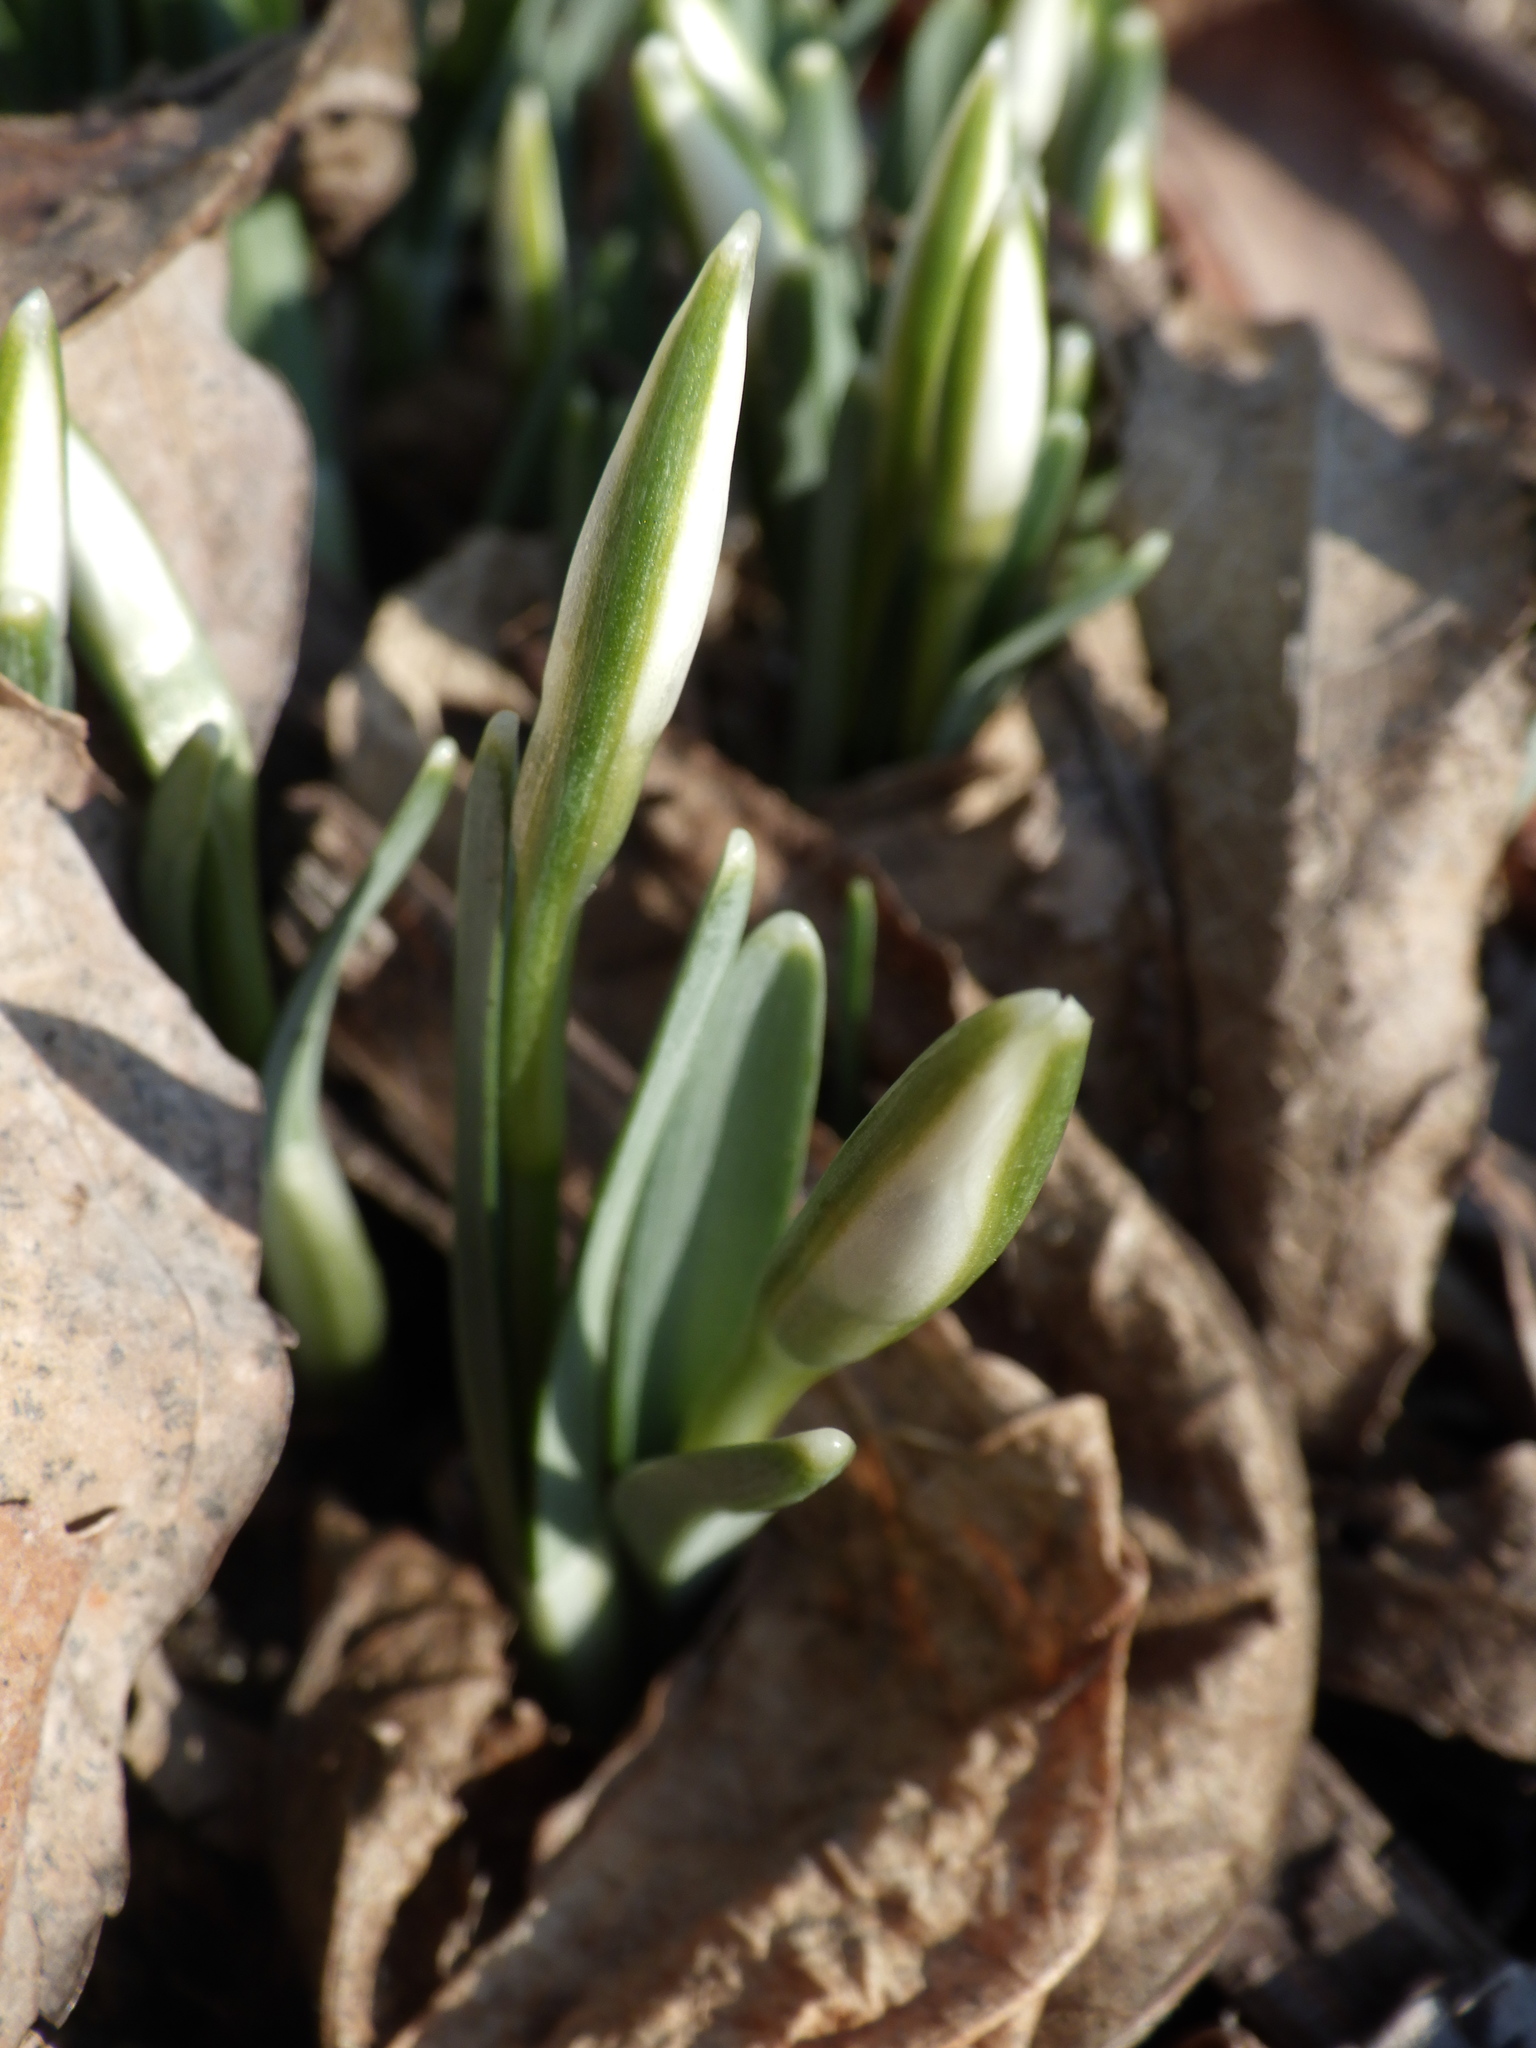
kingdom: Plantae
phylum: Tracheophyta
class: Liliopsida
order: Asparagales
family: Amaryllidaceae
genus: Galanthus
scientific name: Galanthus nivalis
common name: Snowdrop
